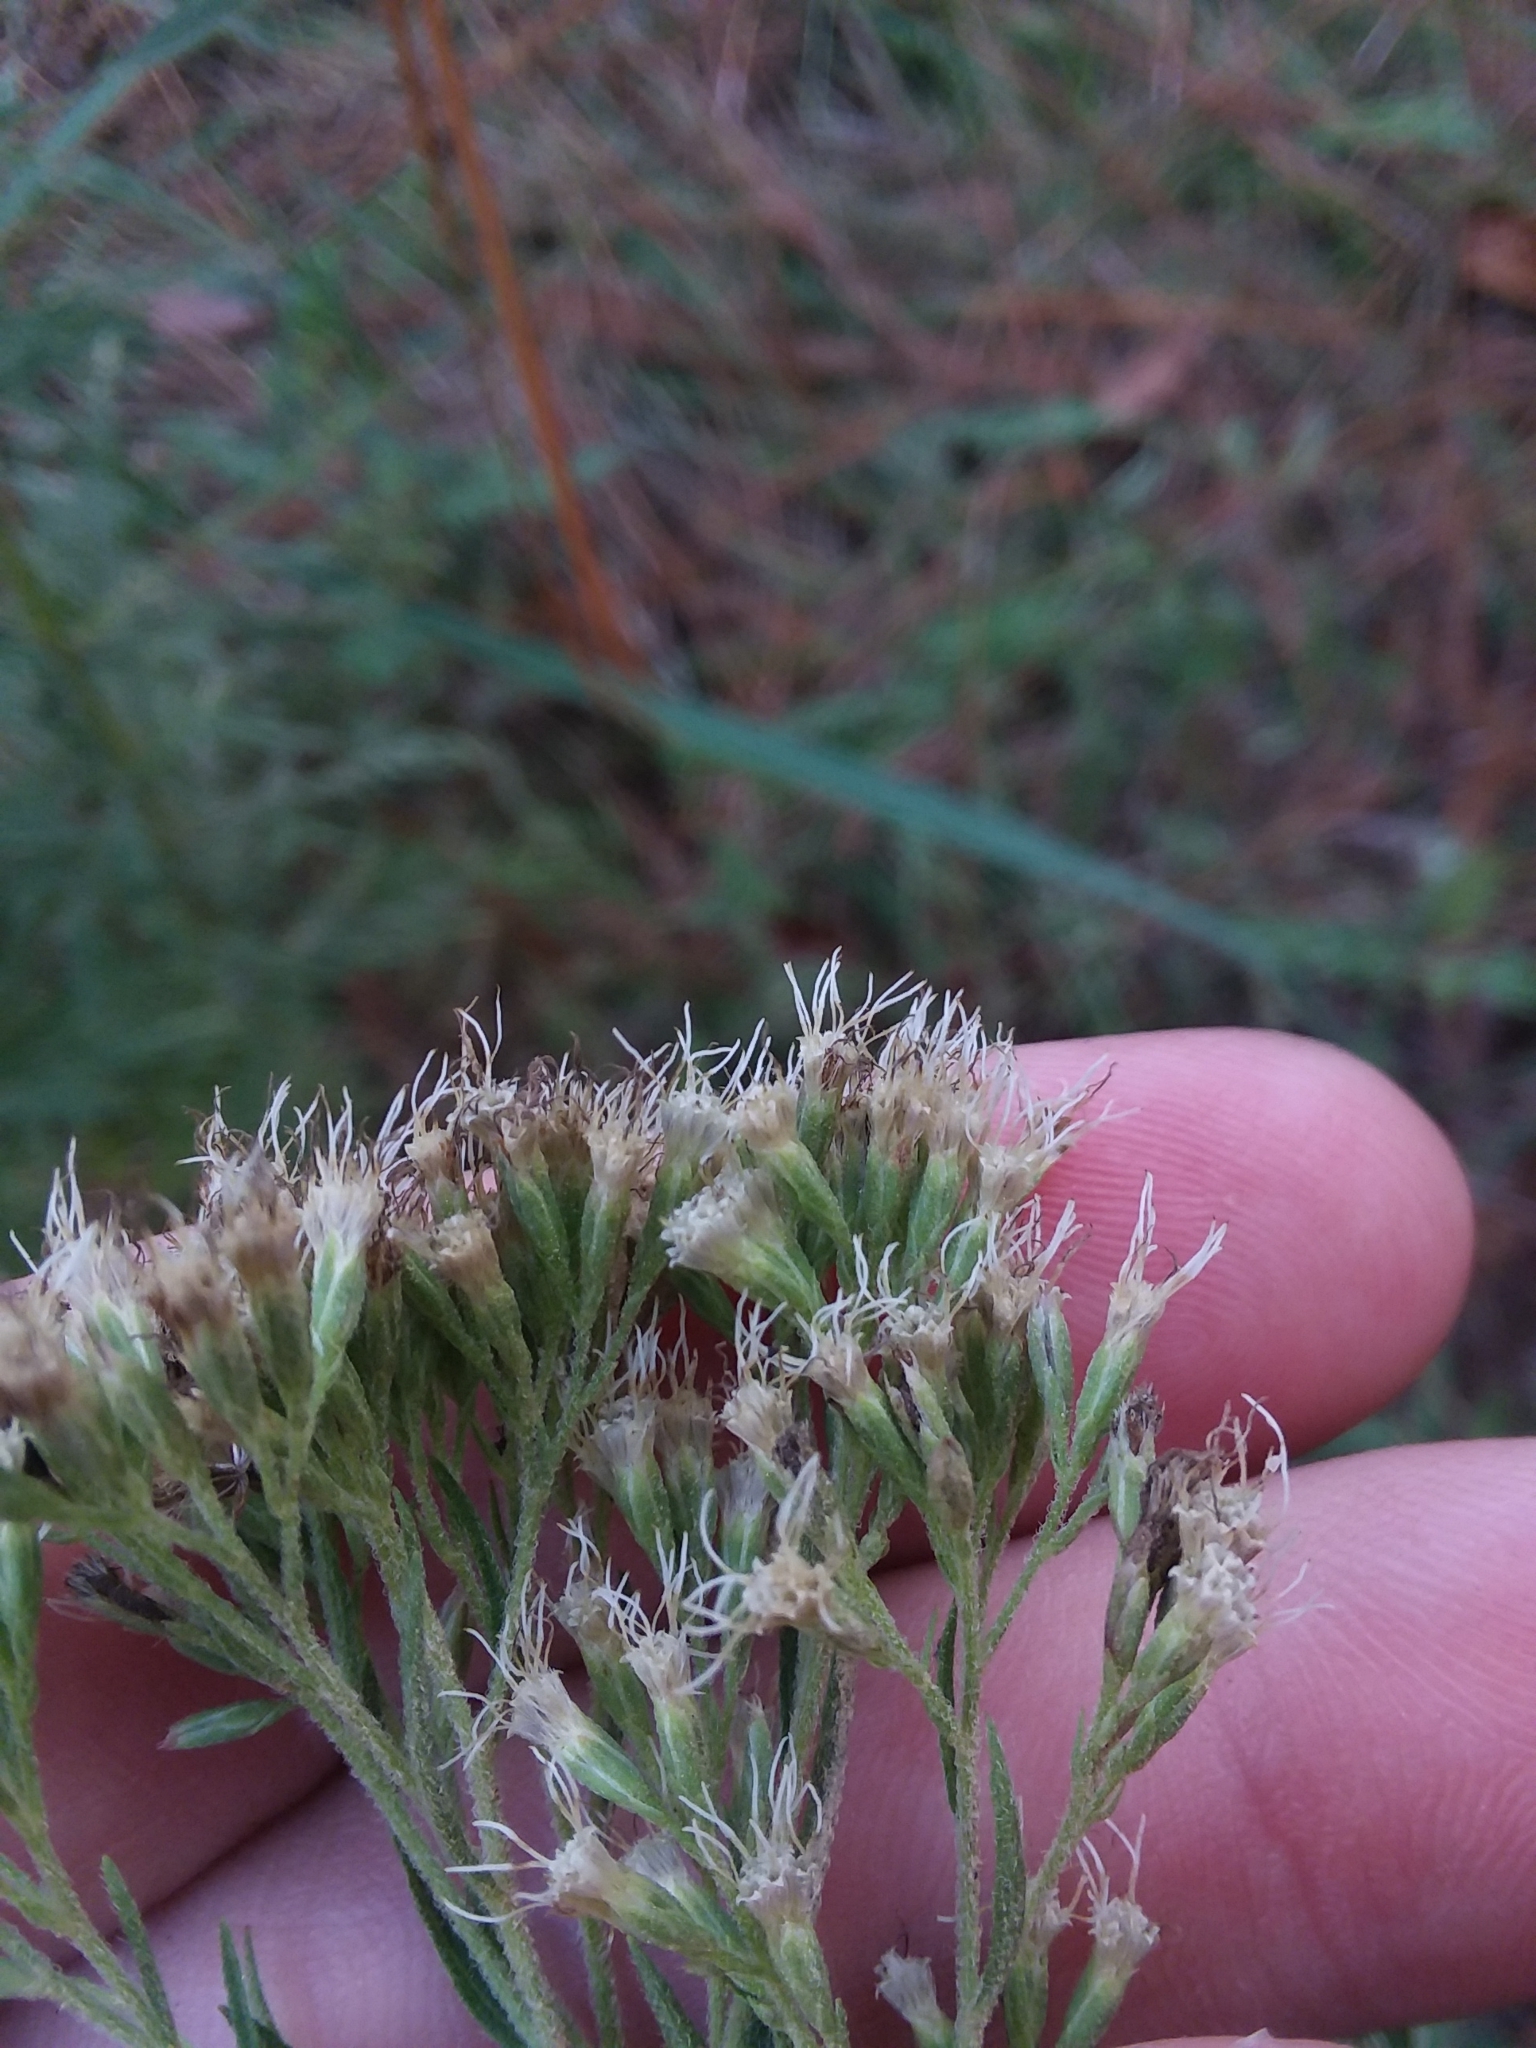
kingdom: Plantae
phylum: Tracheophyta
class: Magnoliopsida
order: Asterales
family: Asteraceae
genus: Eupatorium
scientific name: Eupatorium compositifolium
